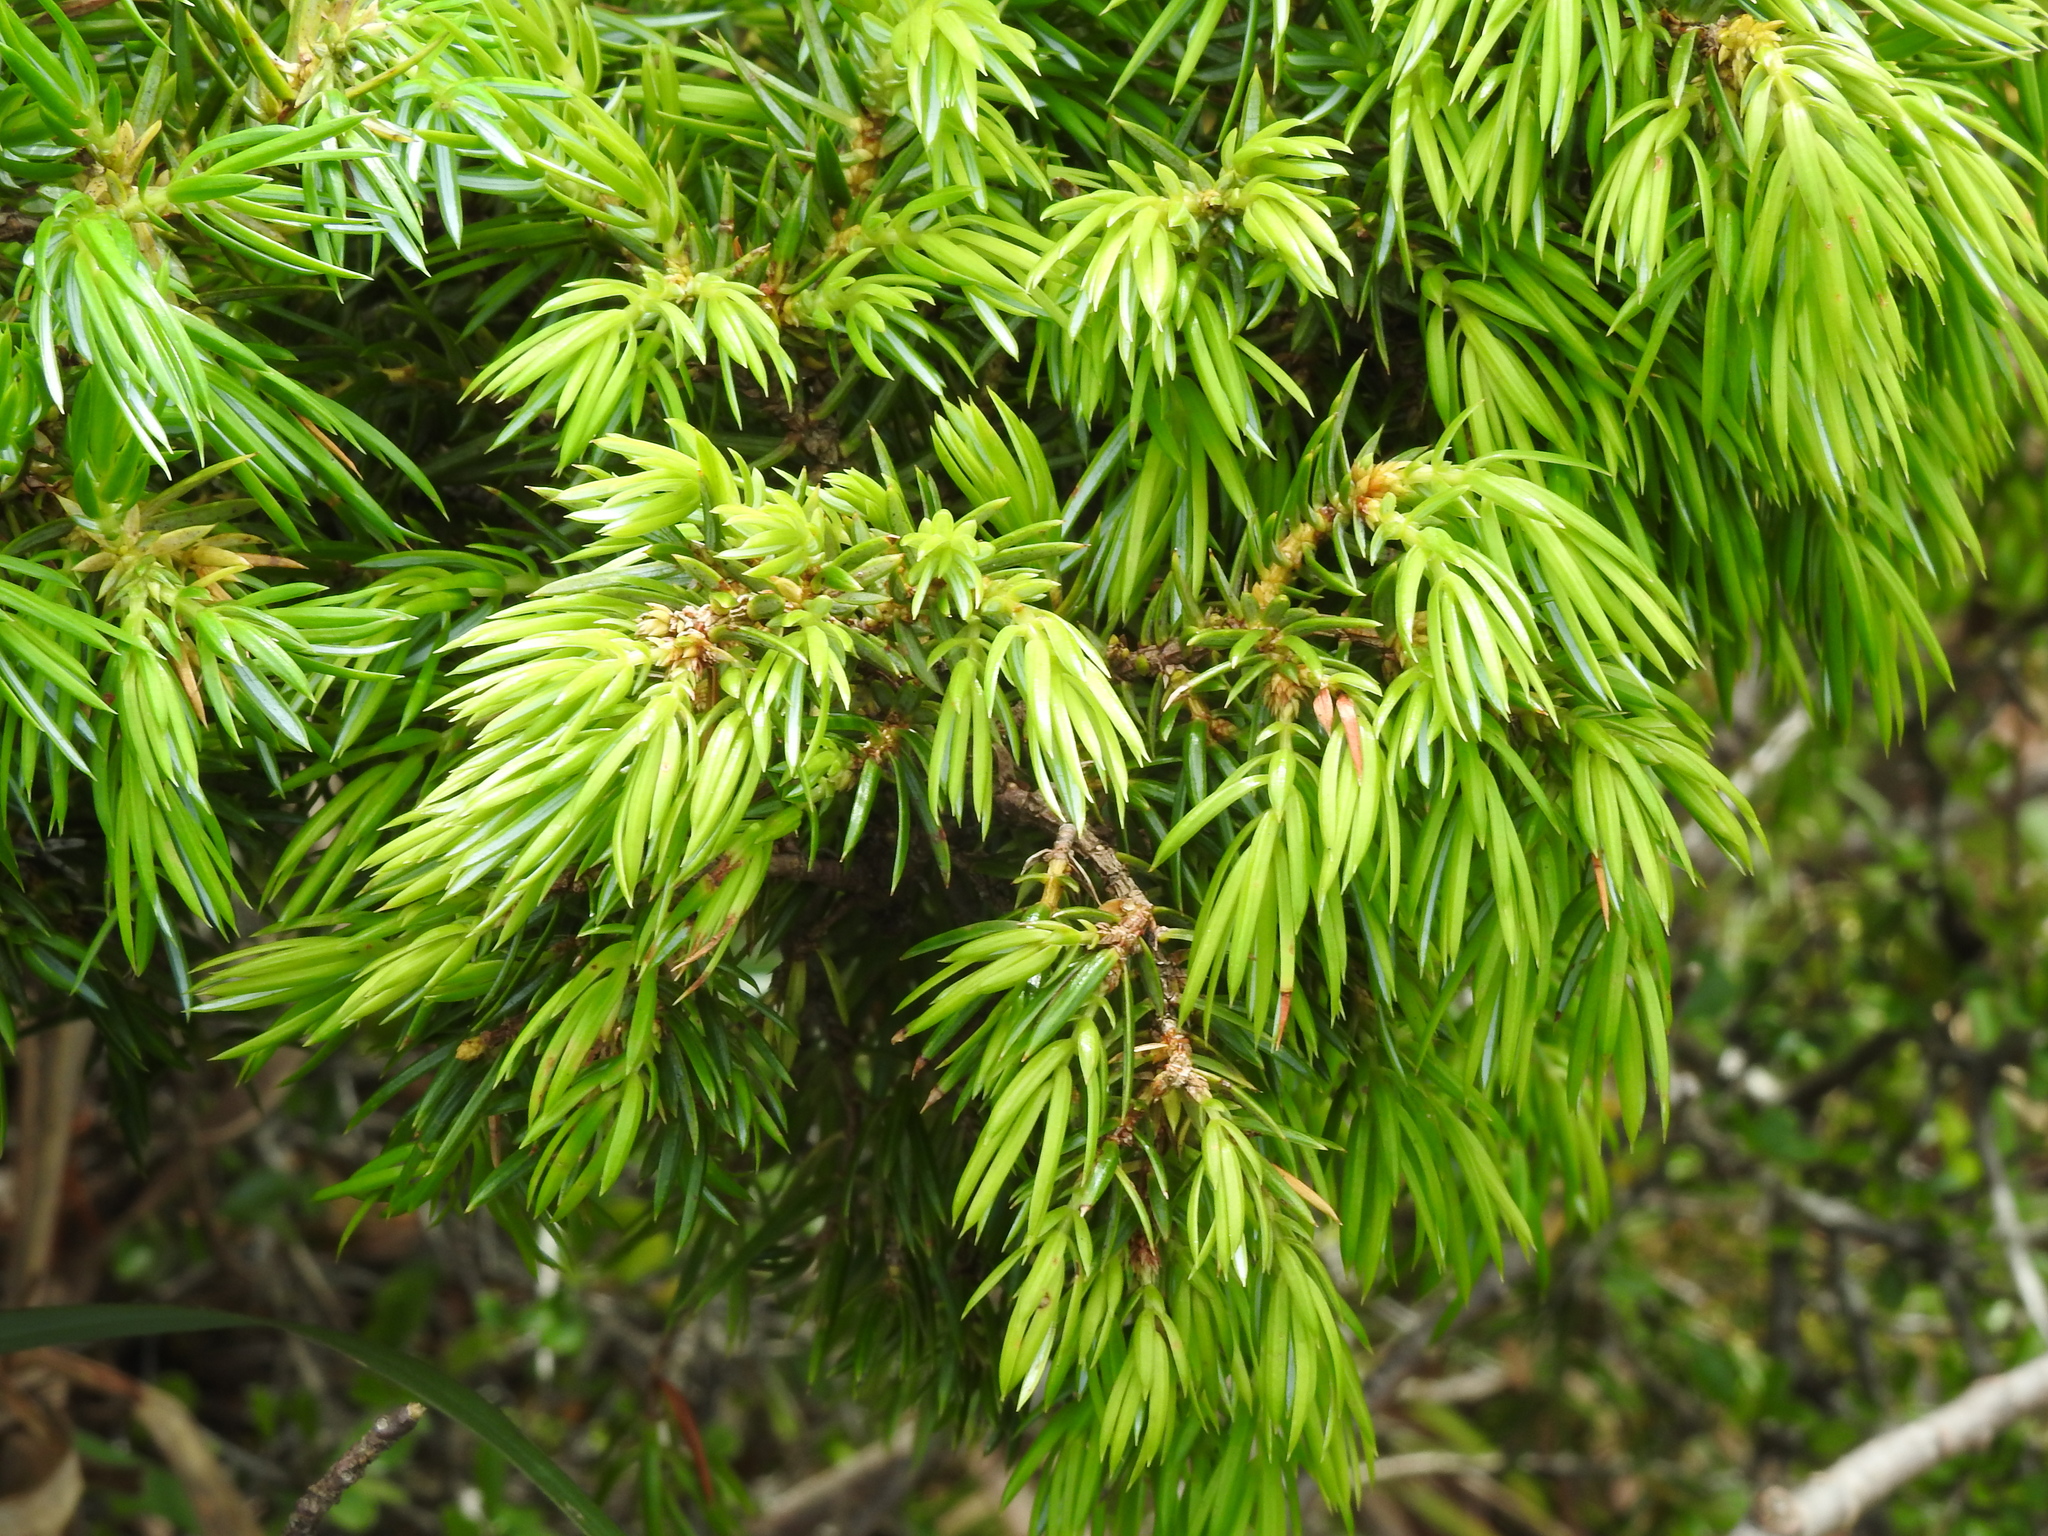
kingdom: Plantae
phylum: Tracheophyta
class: Pinopsida
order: Pinales
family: Cupressaceae
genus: Juniperus
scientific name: Juniperus formosana
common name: Formosan juniper
